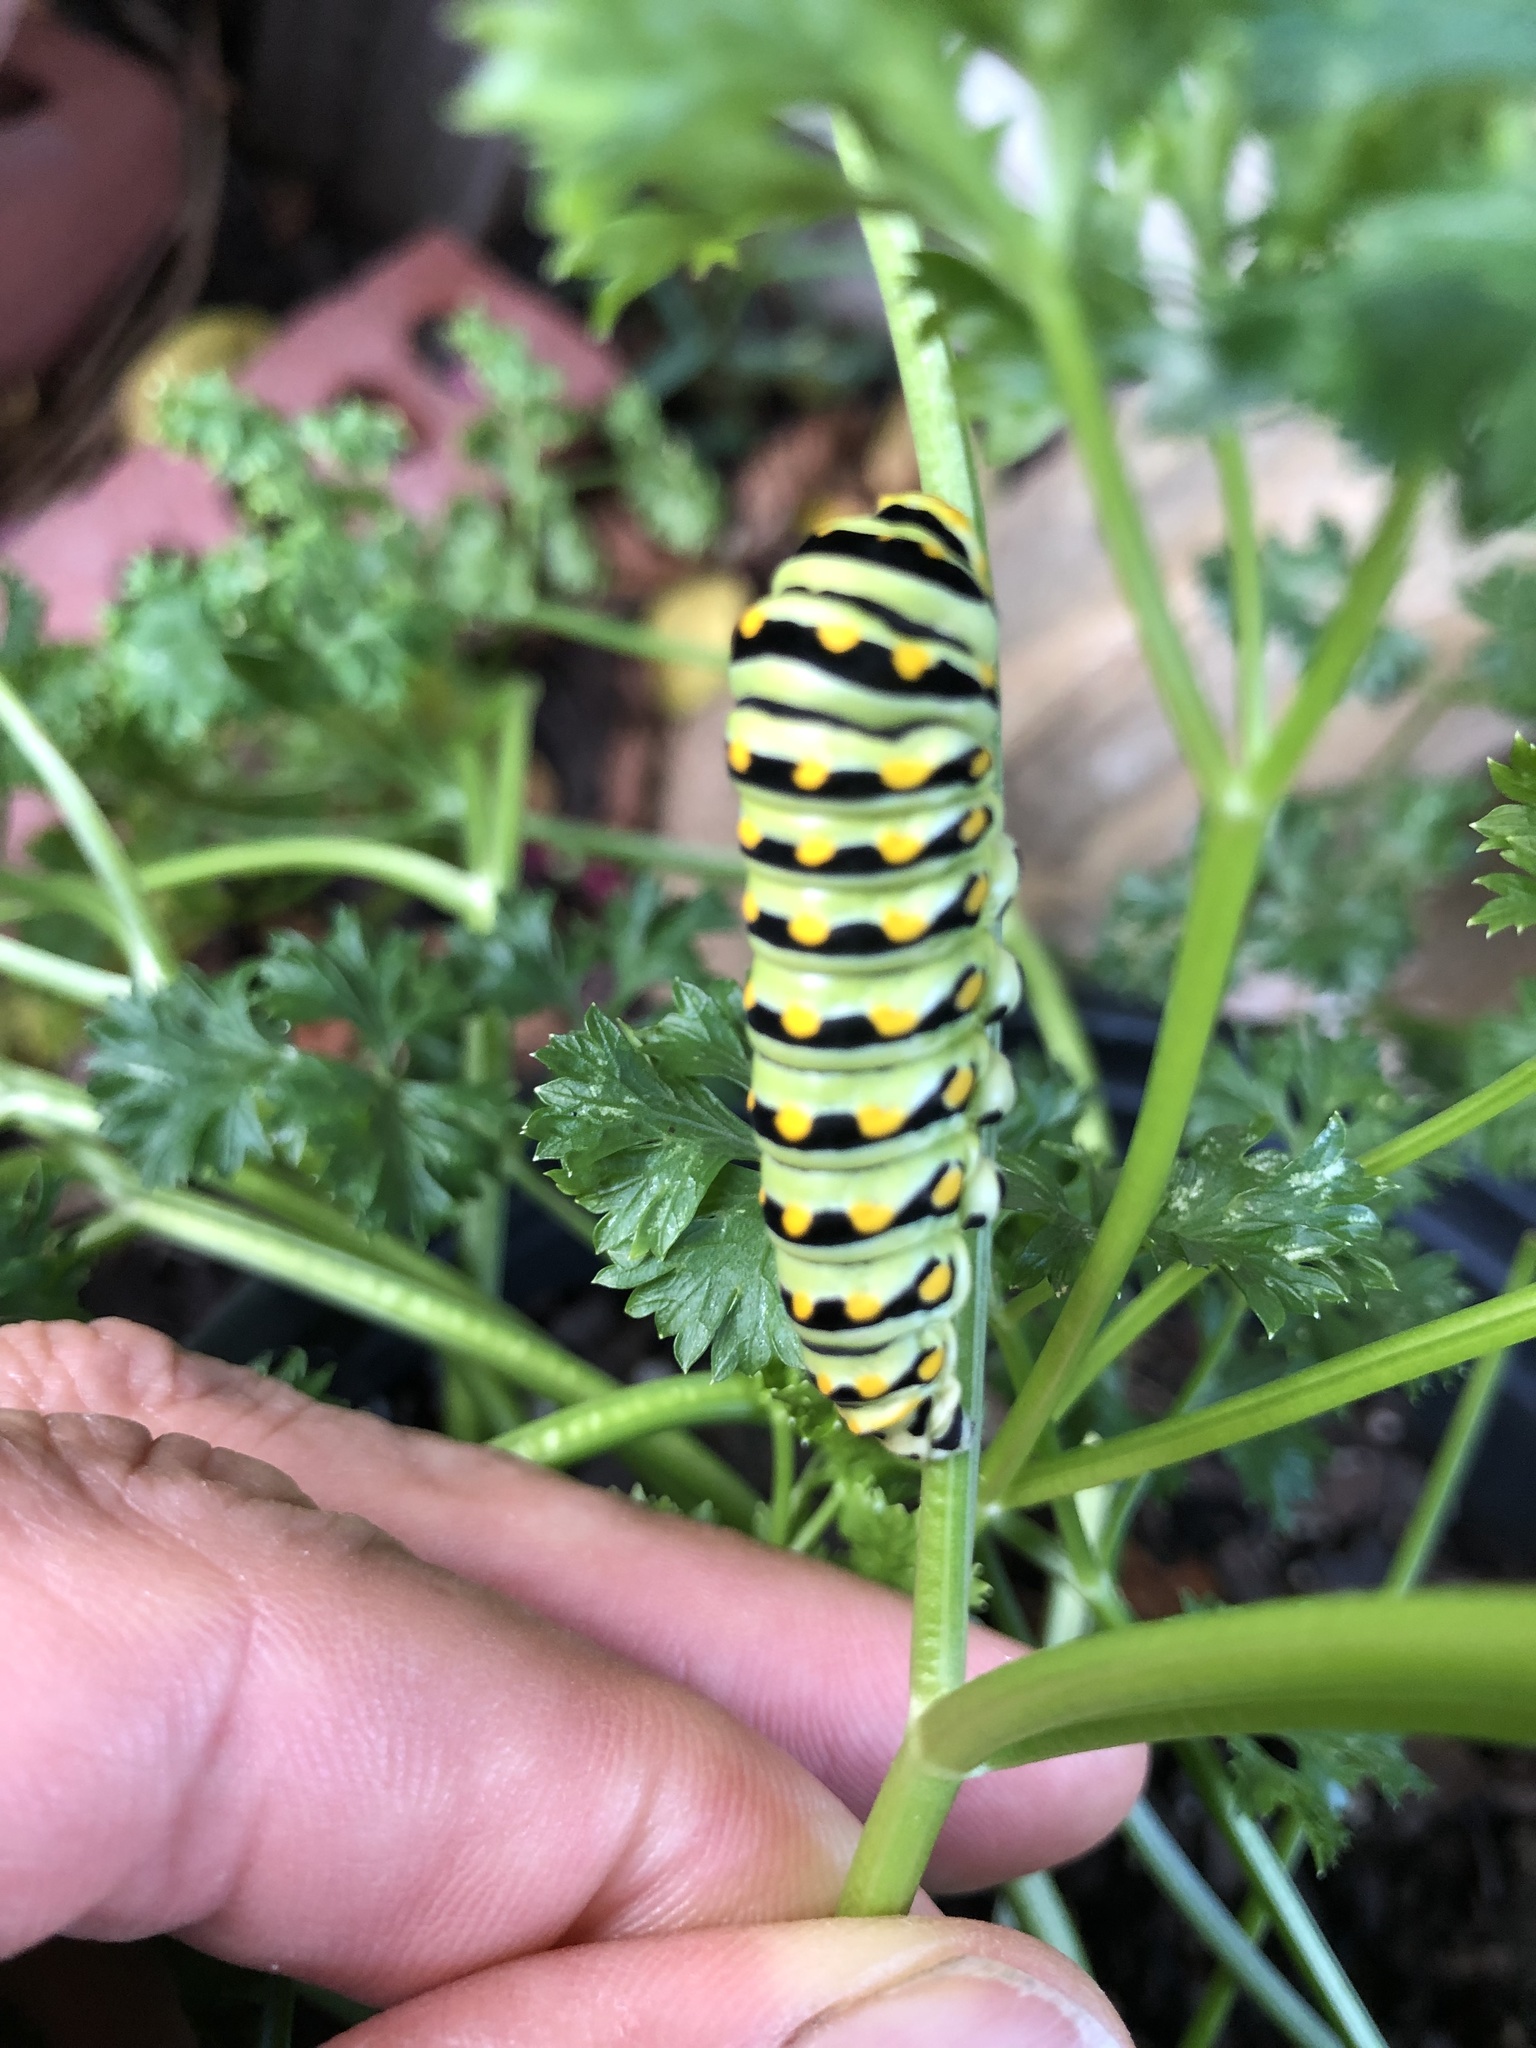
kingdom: Animalia
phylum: Arthropoda
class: Insecta
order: Lepidoptera
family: Papilionidae
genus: Papilio
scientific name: Papilio polyxenes
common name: Black swallowtail
